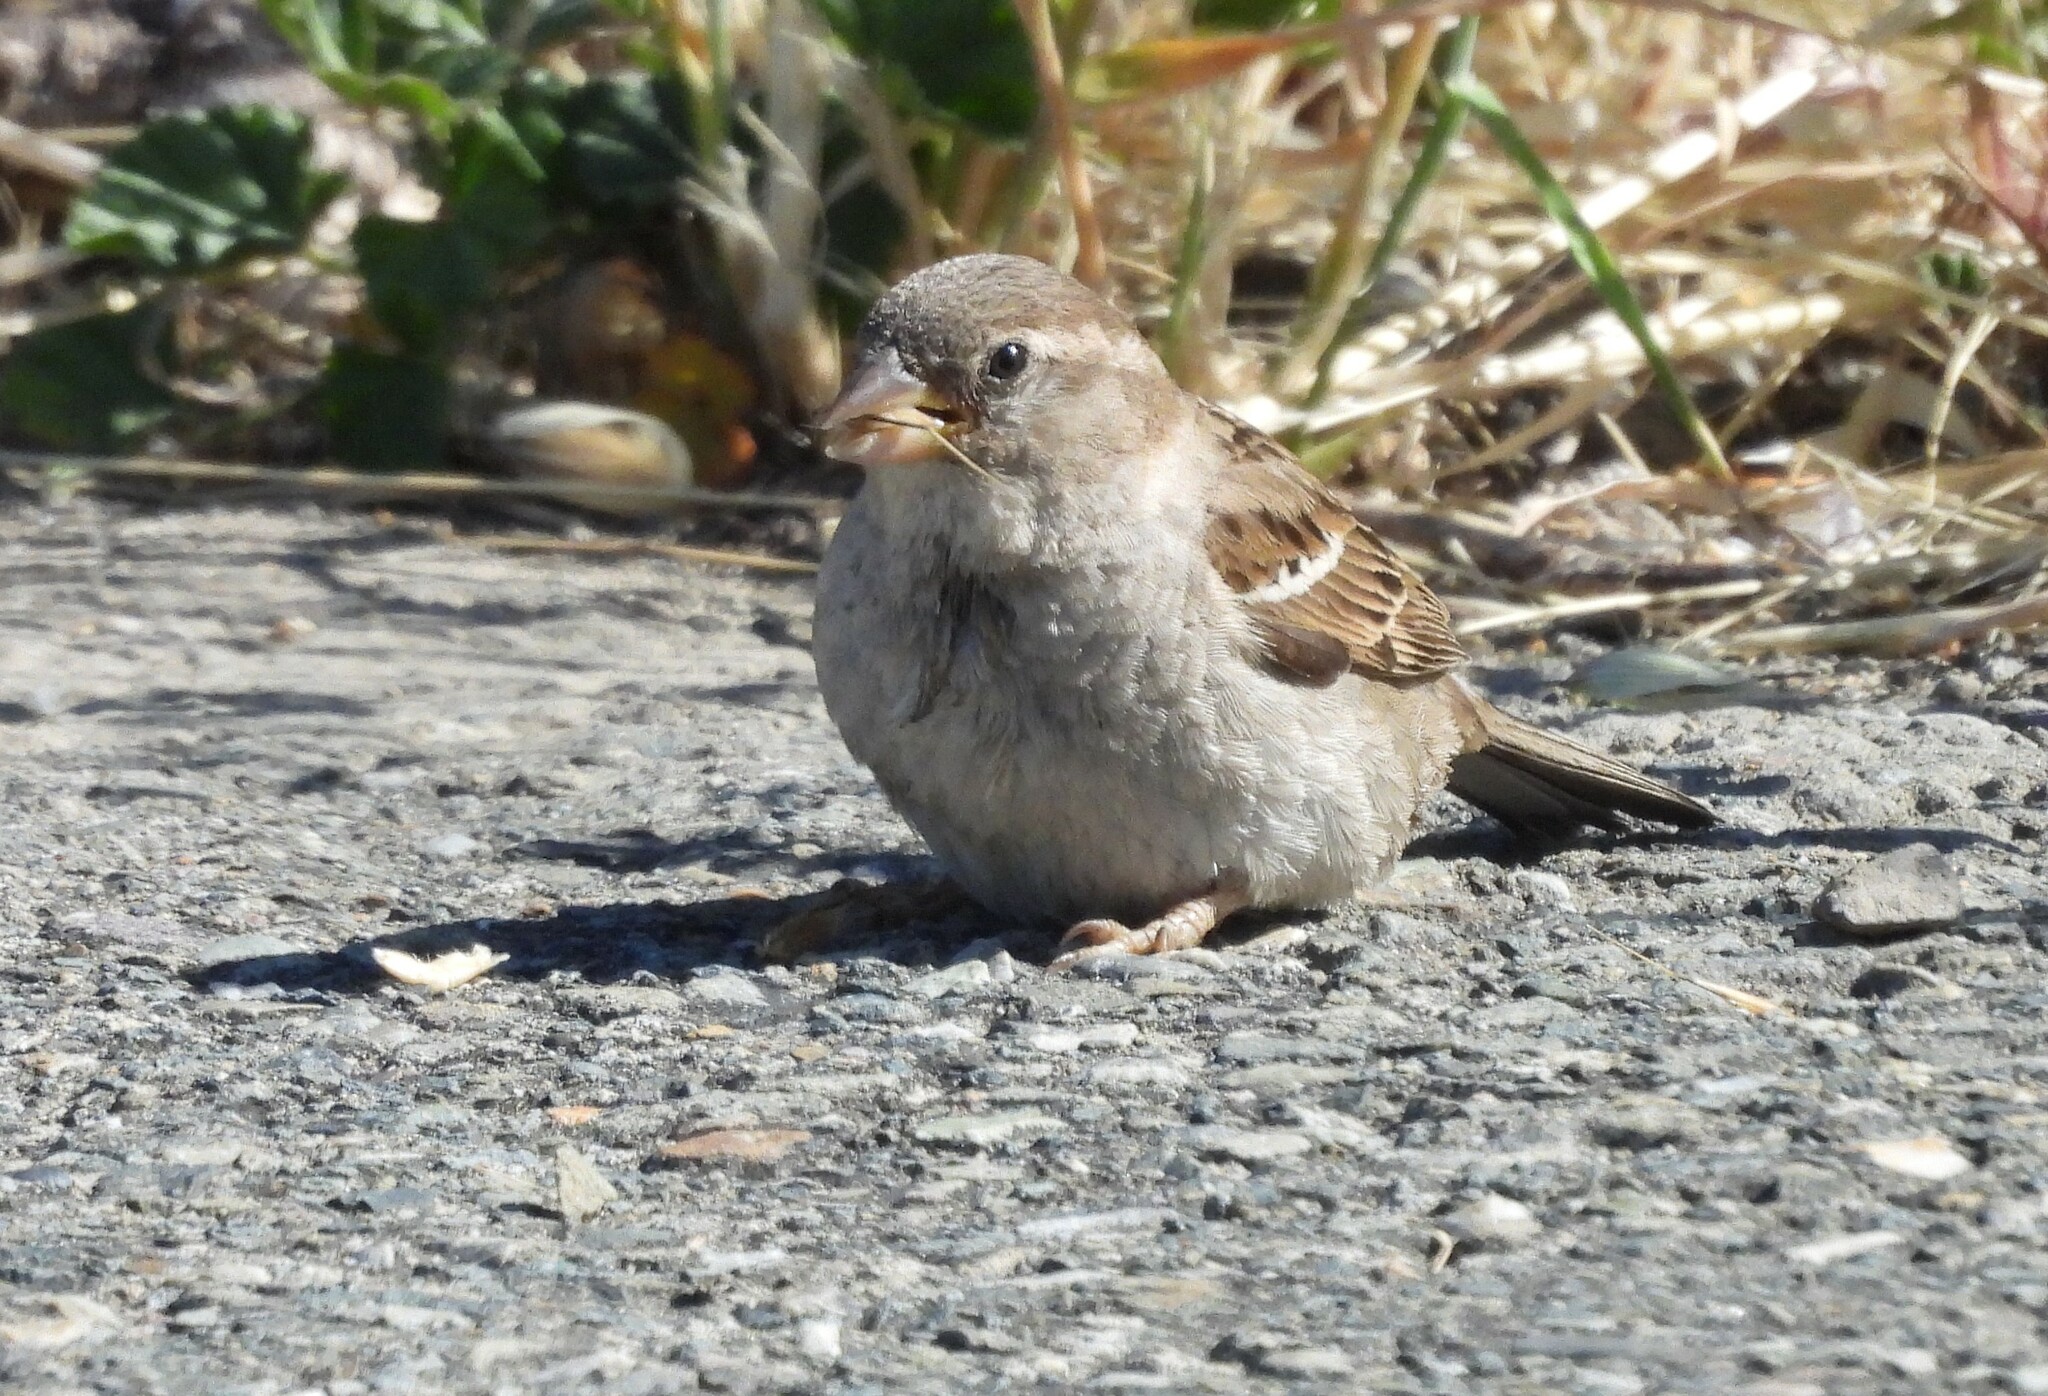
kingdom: Animalia
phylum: Chordata
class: Aves
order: Passeriformes
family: Passeridae
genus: Passer
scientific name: Passer domesticus
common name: House sparrow
